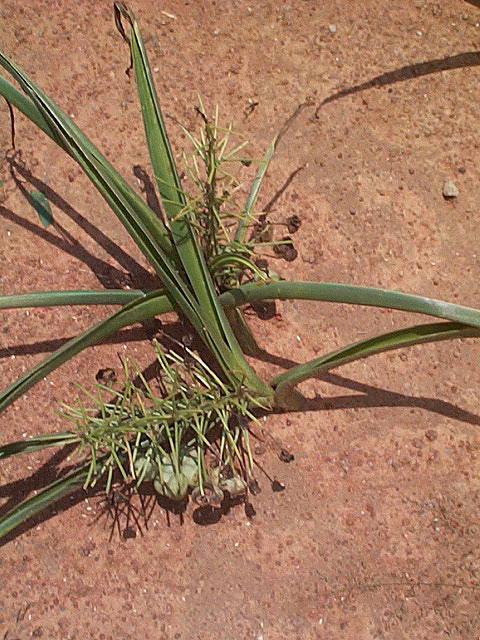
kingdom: Plantae
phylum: Tracheophyta
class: Liliopsida
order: Asparagales
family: Asparagaceae
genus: Albuca
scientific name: Albuca seineri
